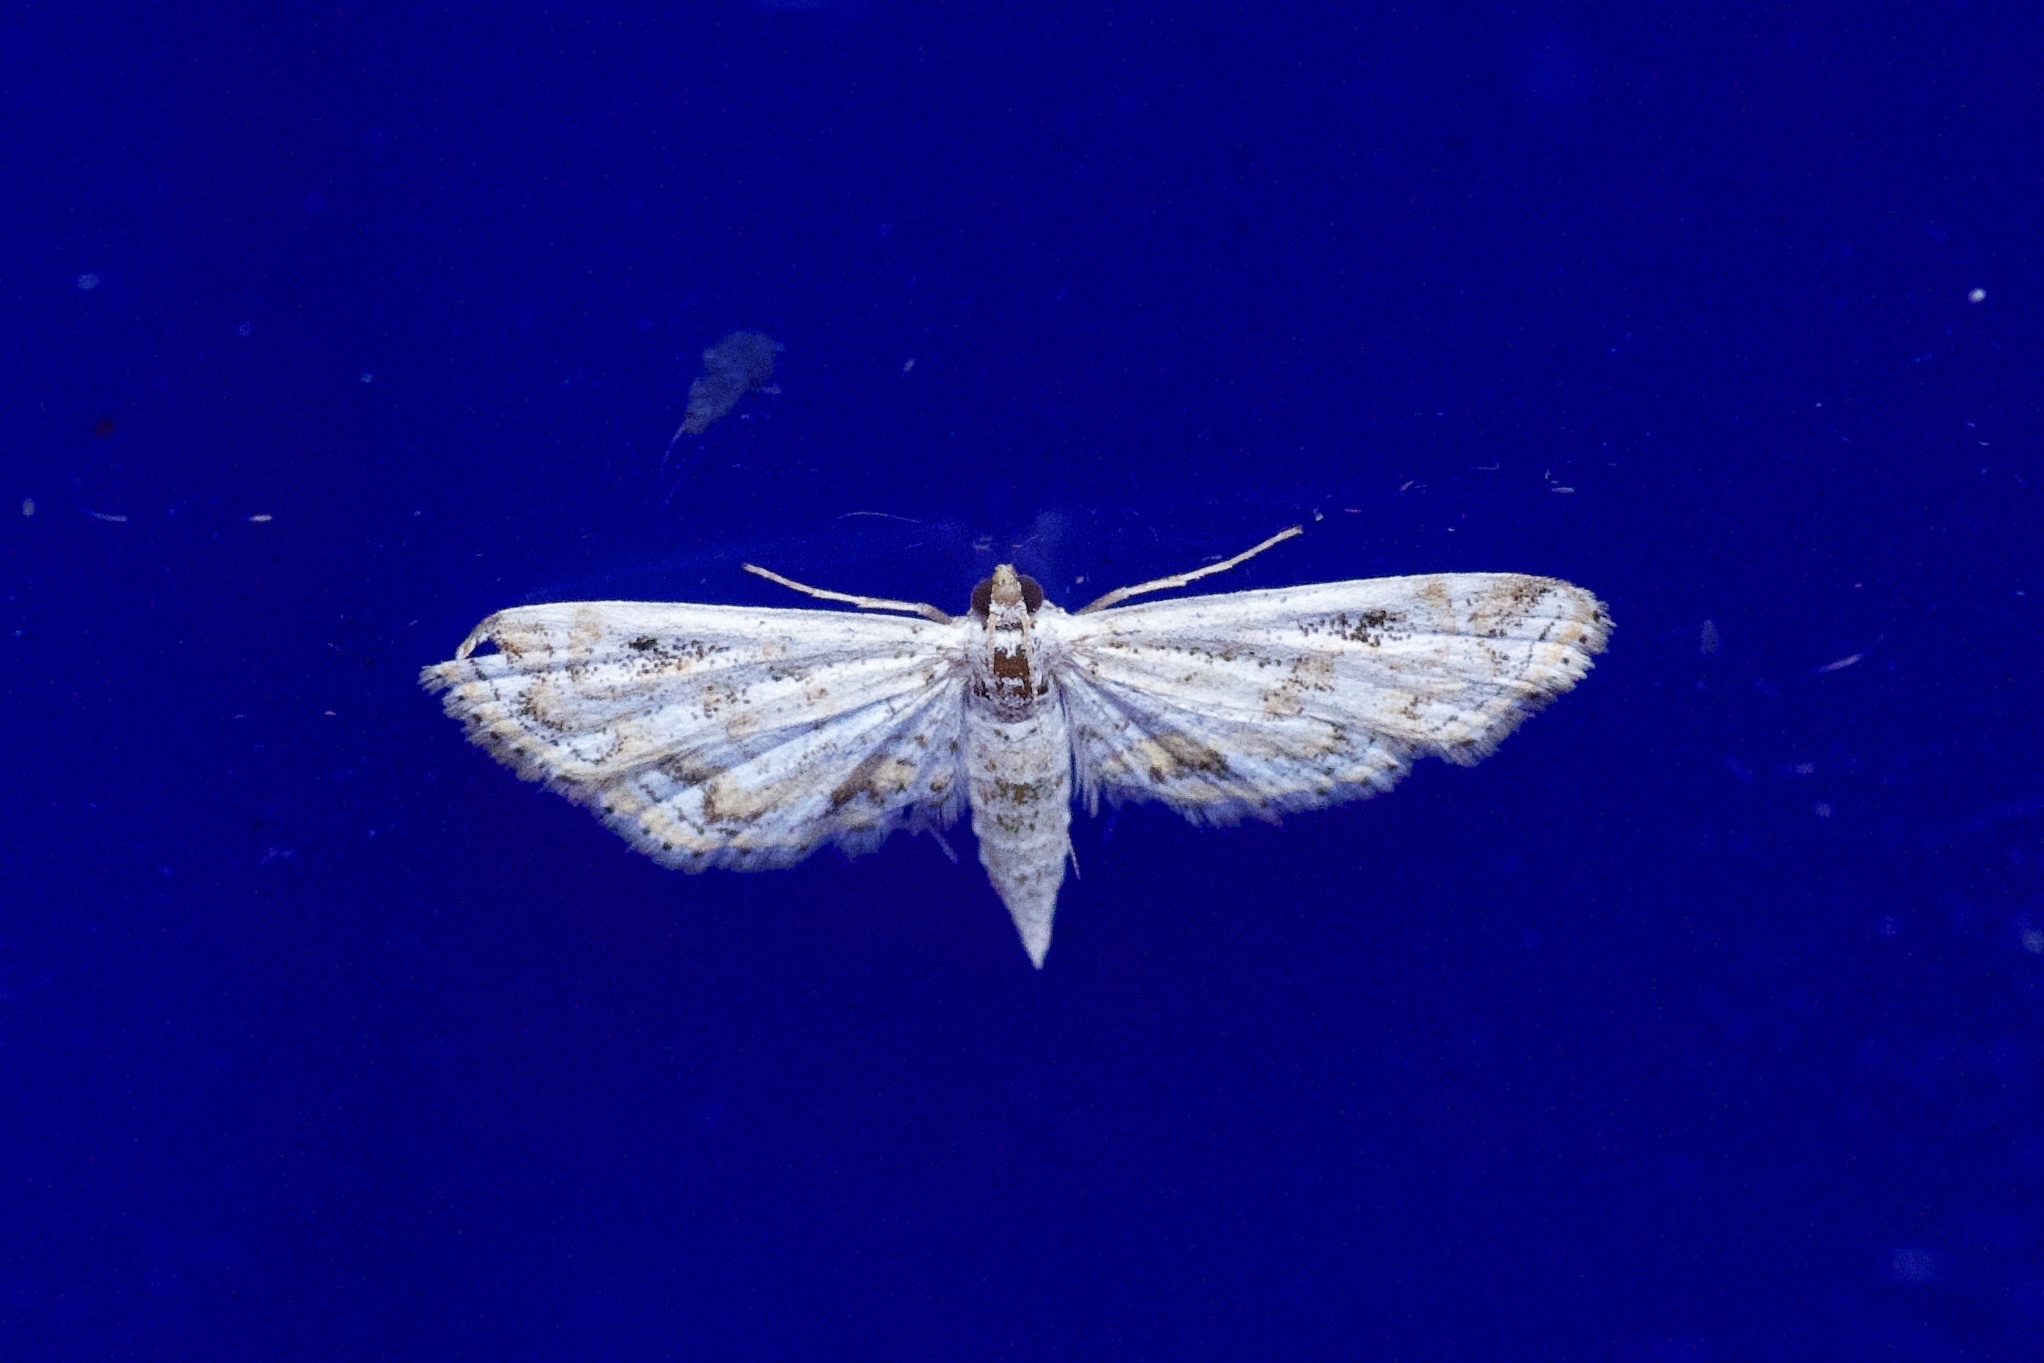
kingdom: Animalia
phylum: Arthropoda
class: Insecta
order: Lepidoptera
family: Crambidae
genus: Parapoynx
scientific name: Parapoynx diminutalis
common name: Hydrilla leafcutter
